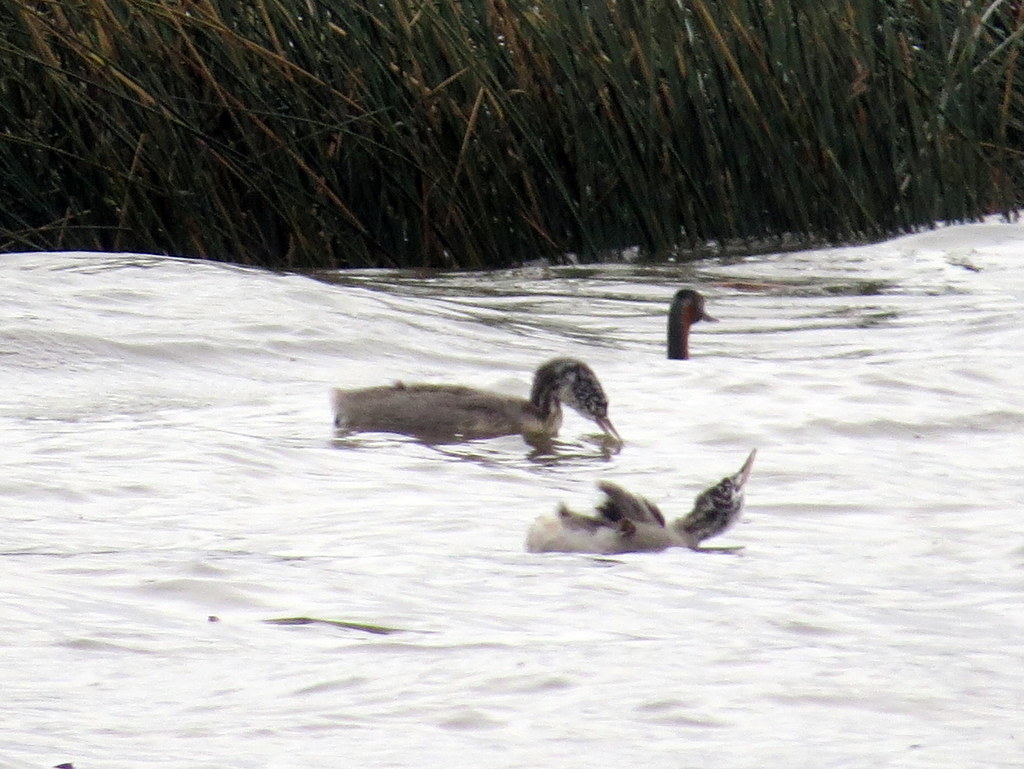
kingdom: Animalia
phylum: Chordata
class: Aves
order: Podicipediformes
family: Podicipedidae
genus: Podiceps
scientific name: Podiceps major
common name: Great grebe
